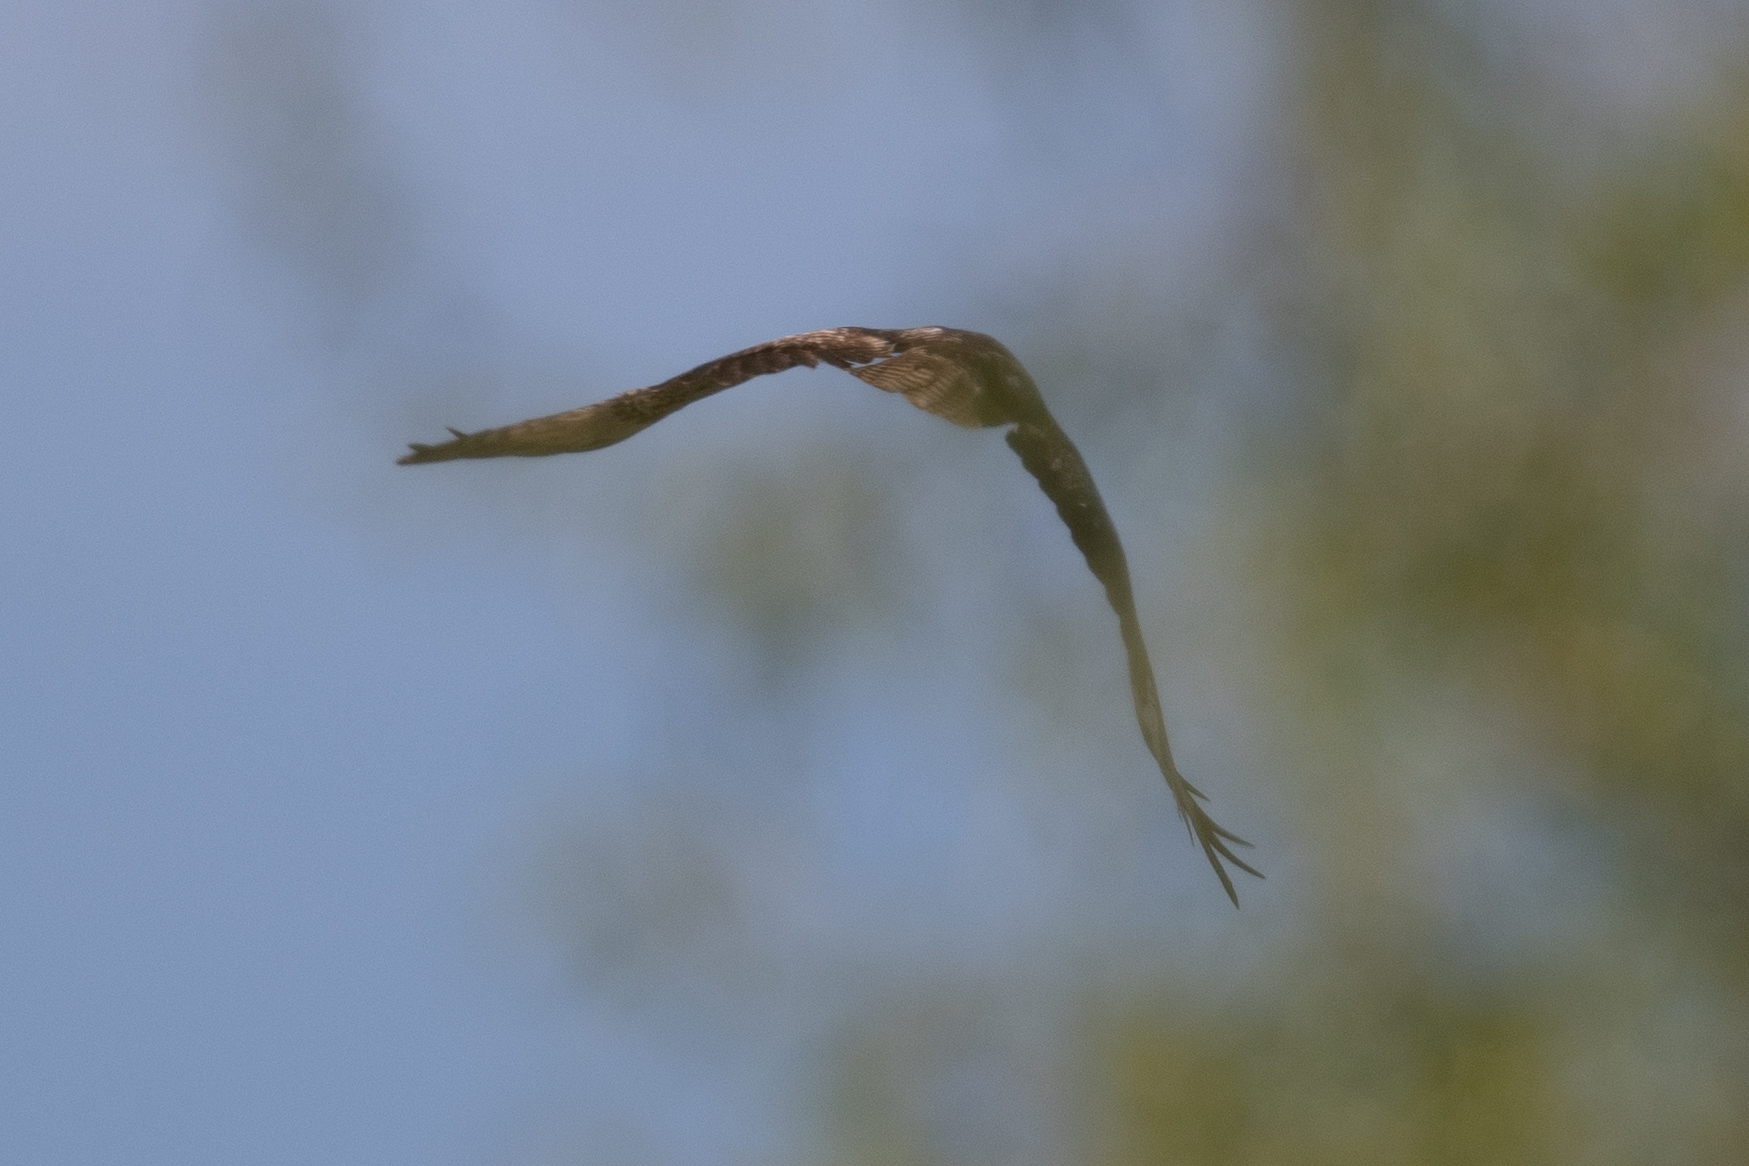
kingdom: Animalia
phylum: Chordata
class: Aves
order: Accipitriformes
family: Accipitridae
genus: Buteo
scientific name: Buteo jamaicensis
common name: Red-tailed hawk
